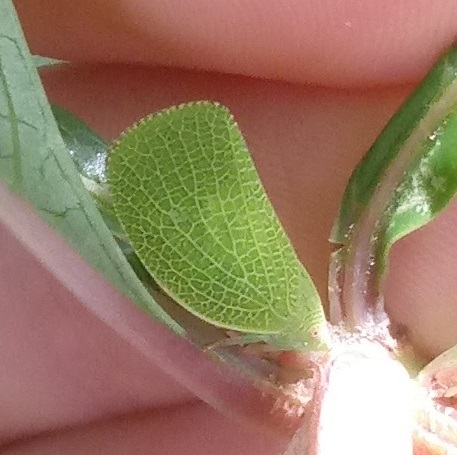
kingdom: Animalia
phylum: Arthropoda
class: Insecta
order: Hemiptera
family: Acanaloniidae
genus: Acanalonia
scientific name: Acanalonia conica
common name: Green cone-headed planthopper
